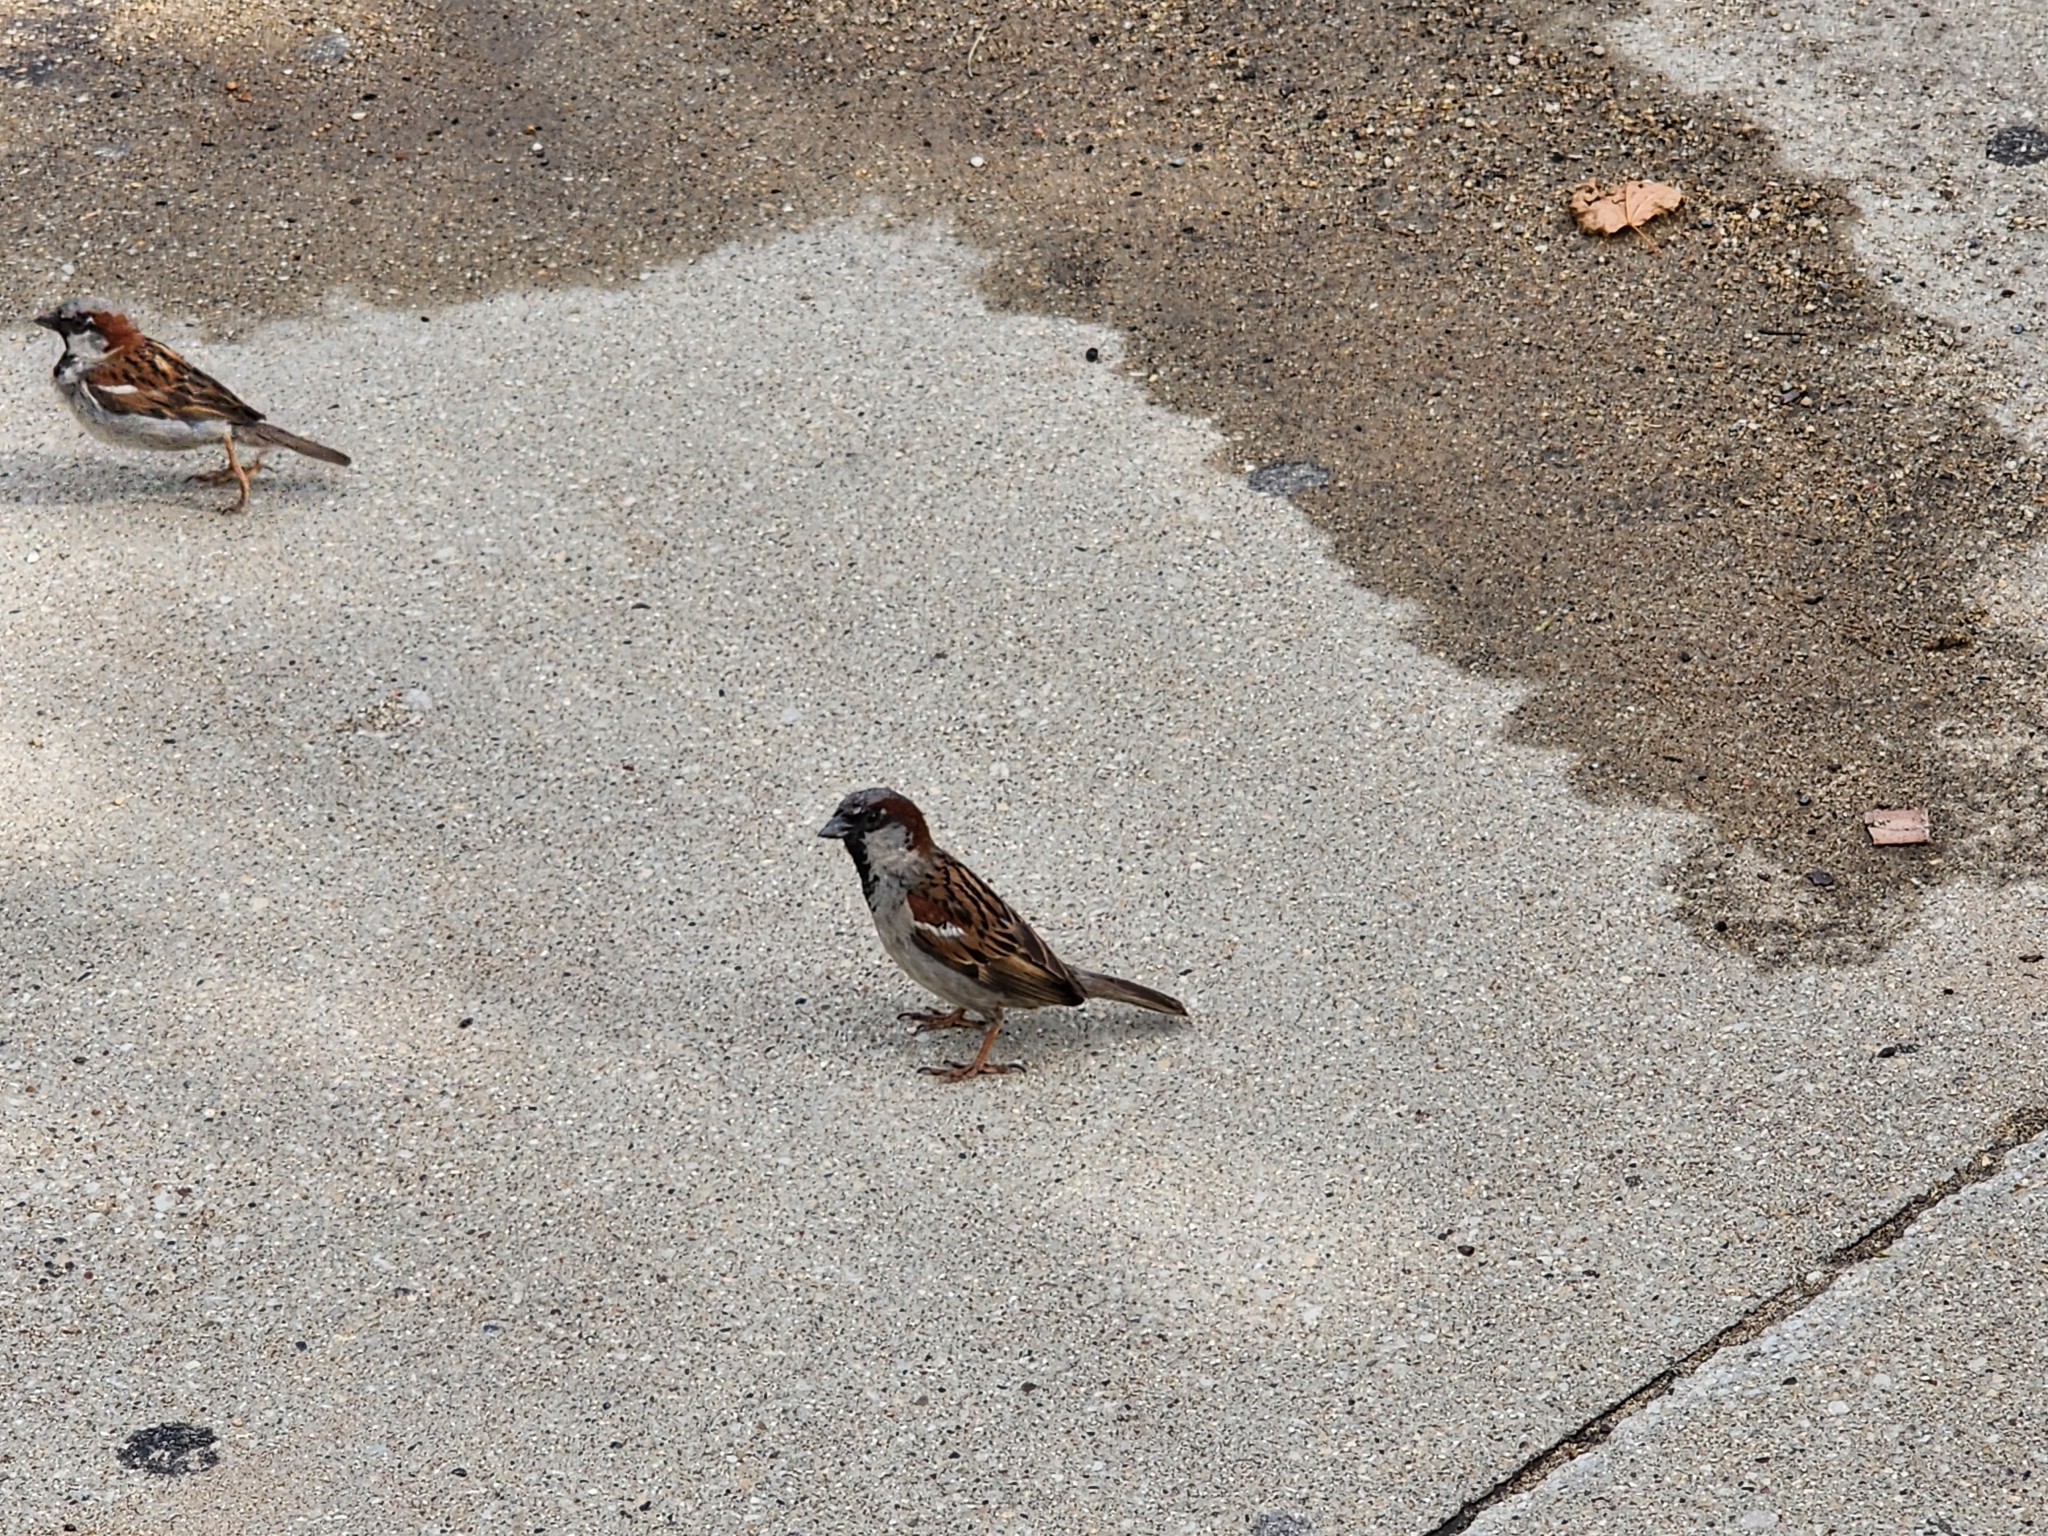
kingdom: Animalia
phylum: Chordata
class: Aves
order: Passeriformes
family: Passeridae
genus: Passer
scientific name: Passer domesticus
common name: House sparrow
